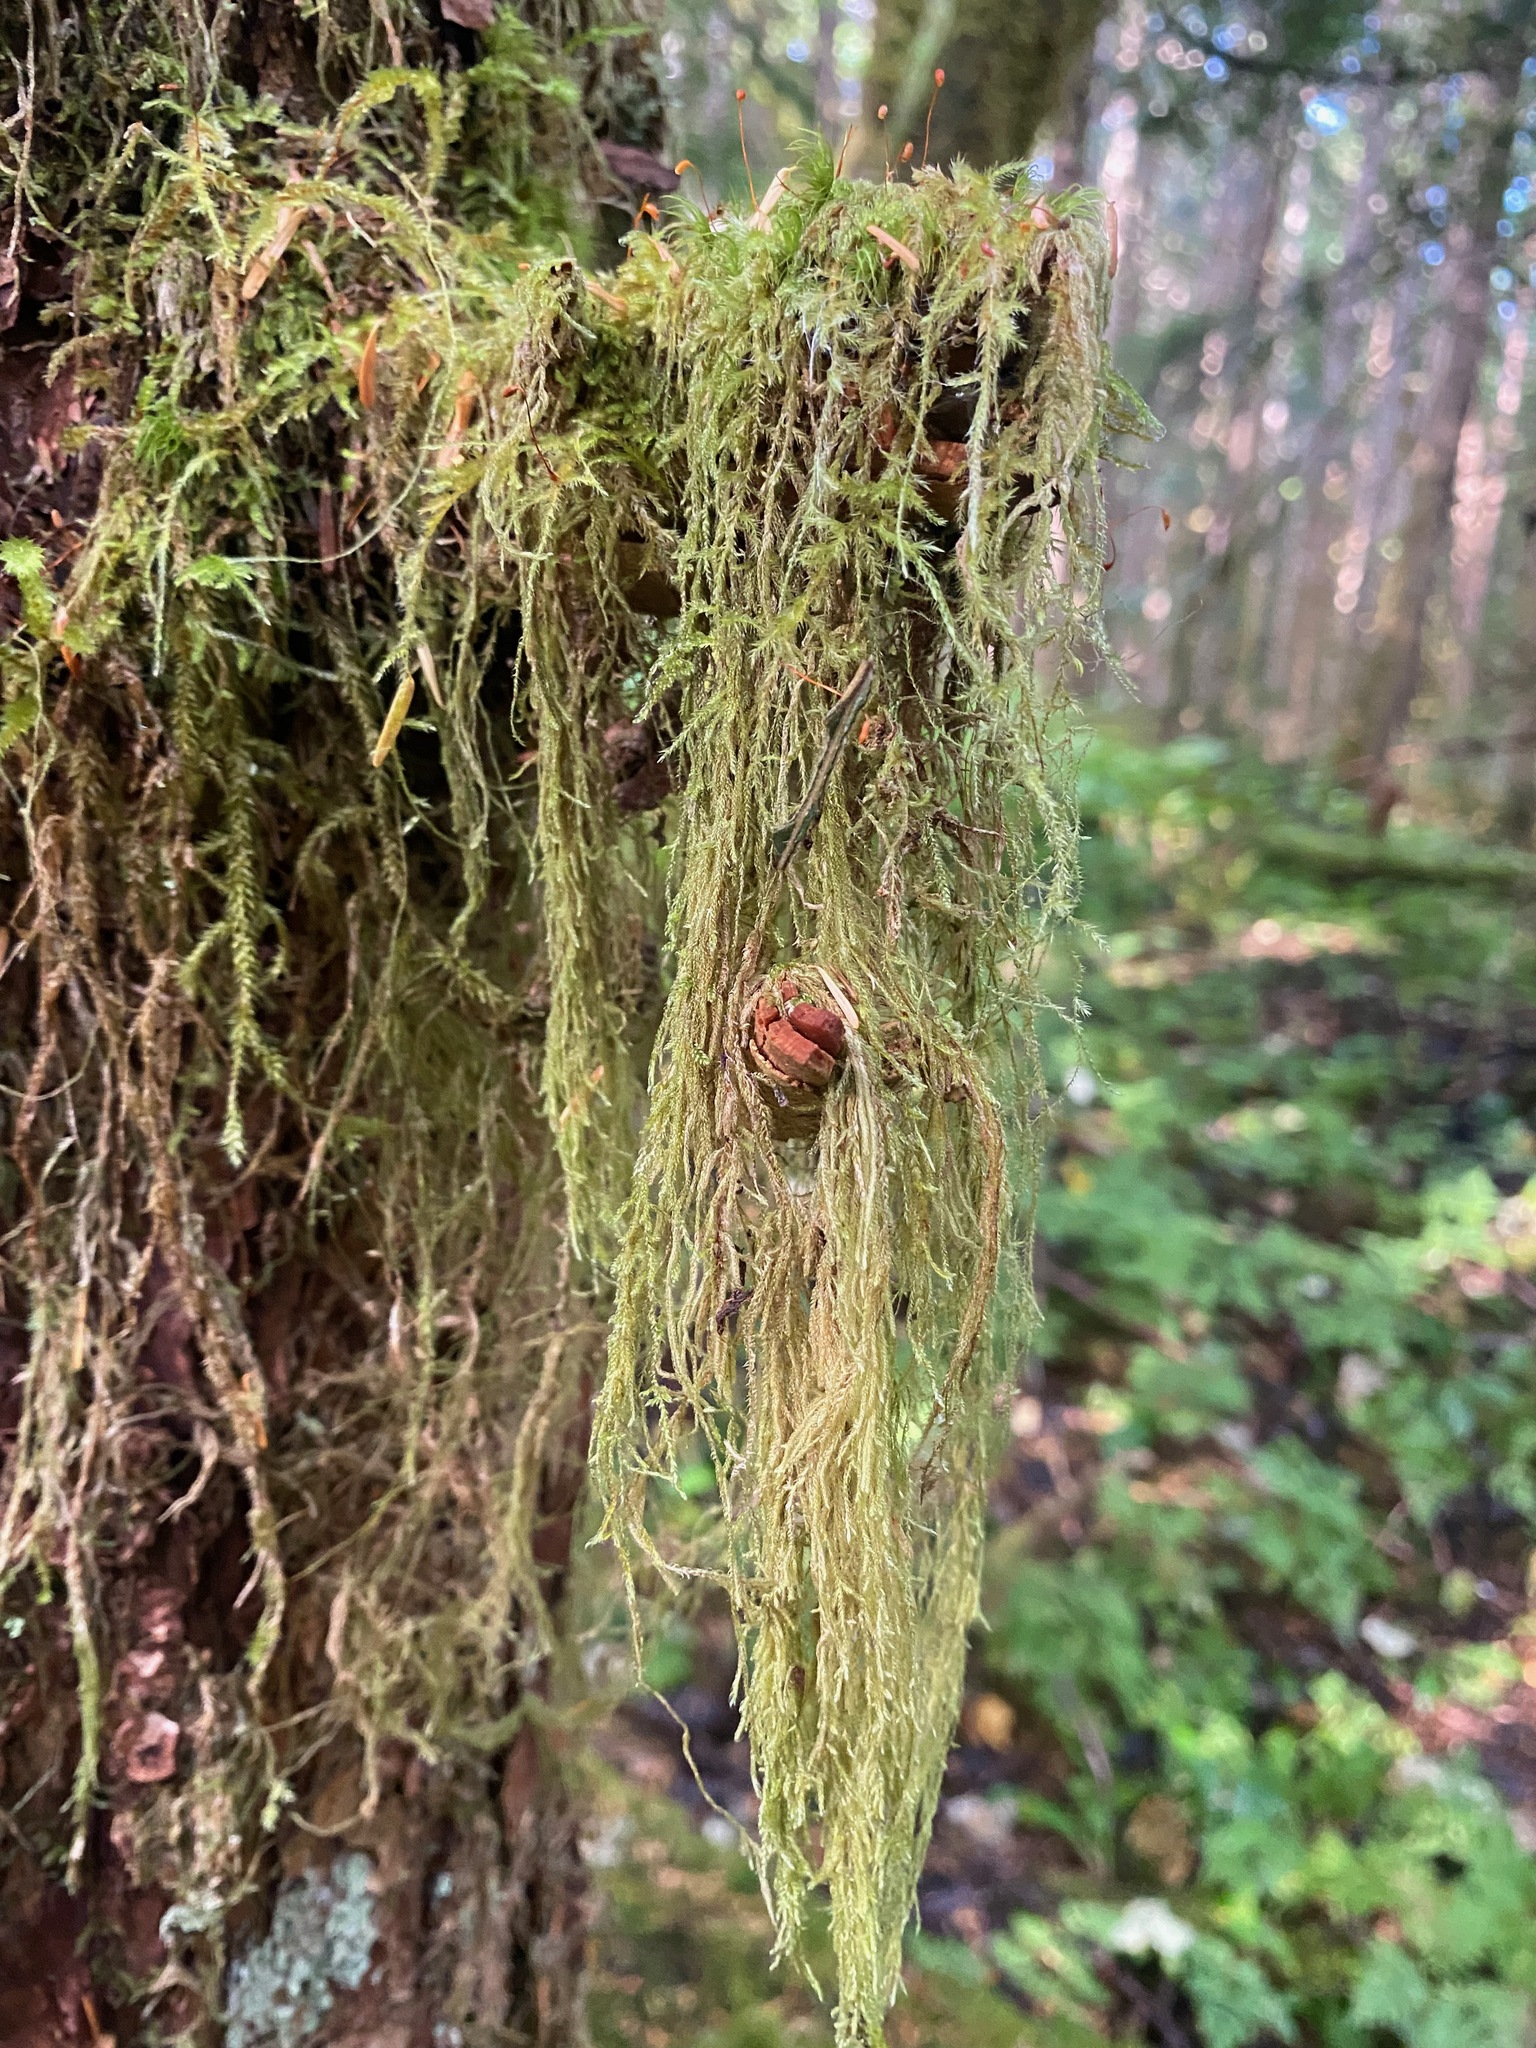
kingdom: Plantae
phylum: Bryophyta
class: Bryopsida
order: Hypnales
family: Lembophyllaceae
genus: Pseudisothecium
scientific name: Pseudisothecium stoloniferum
